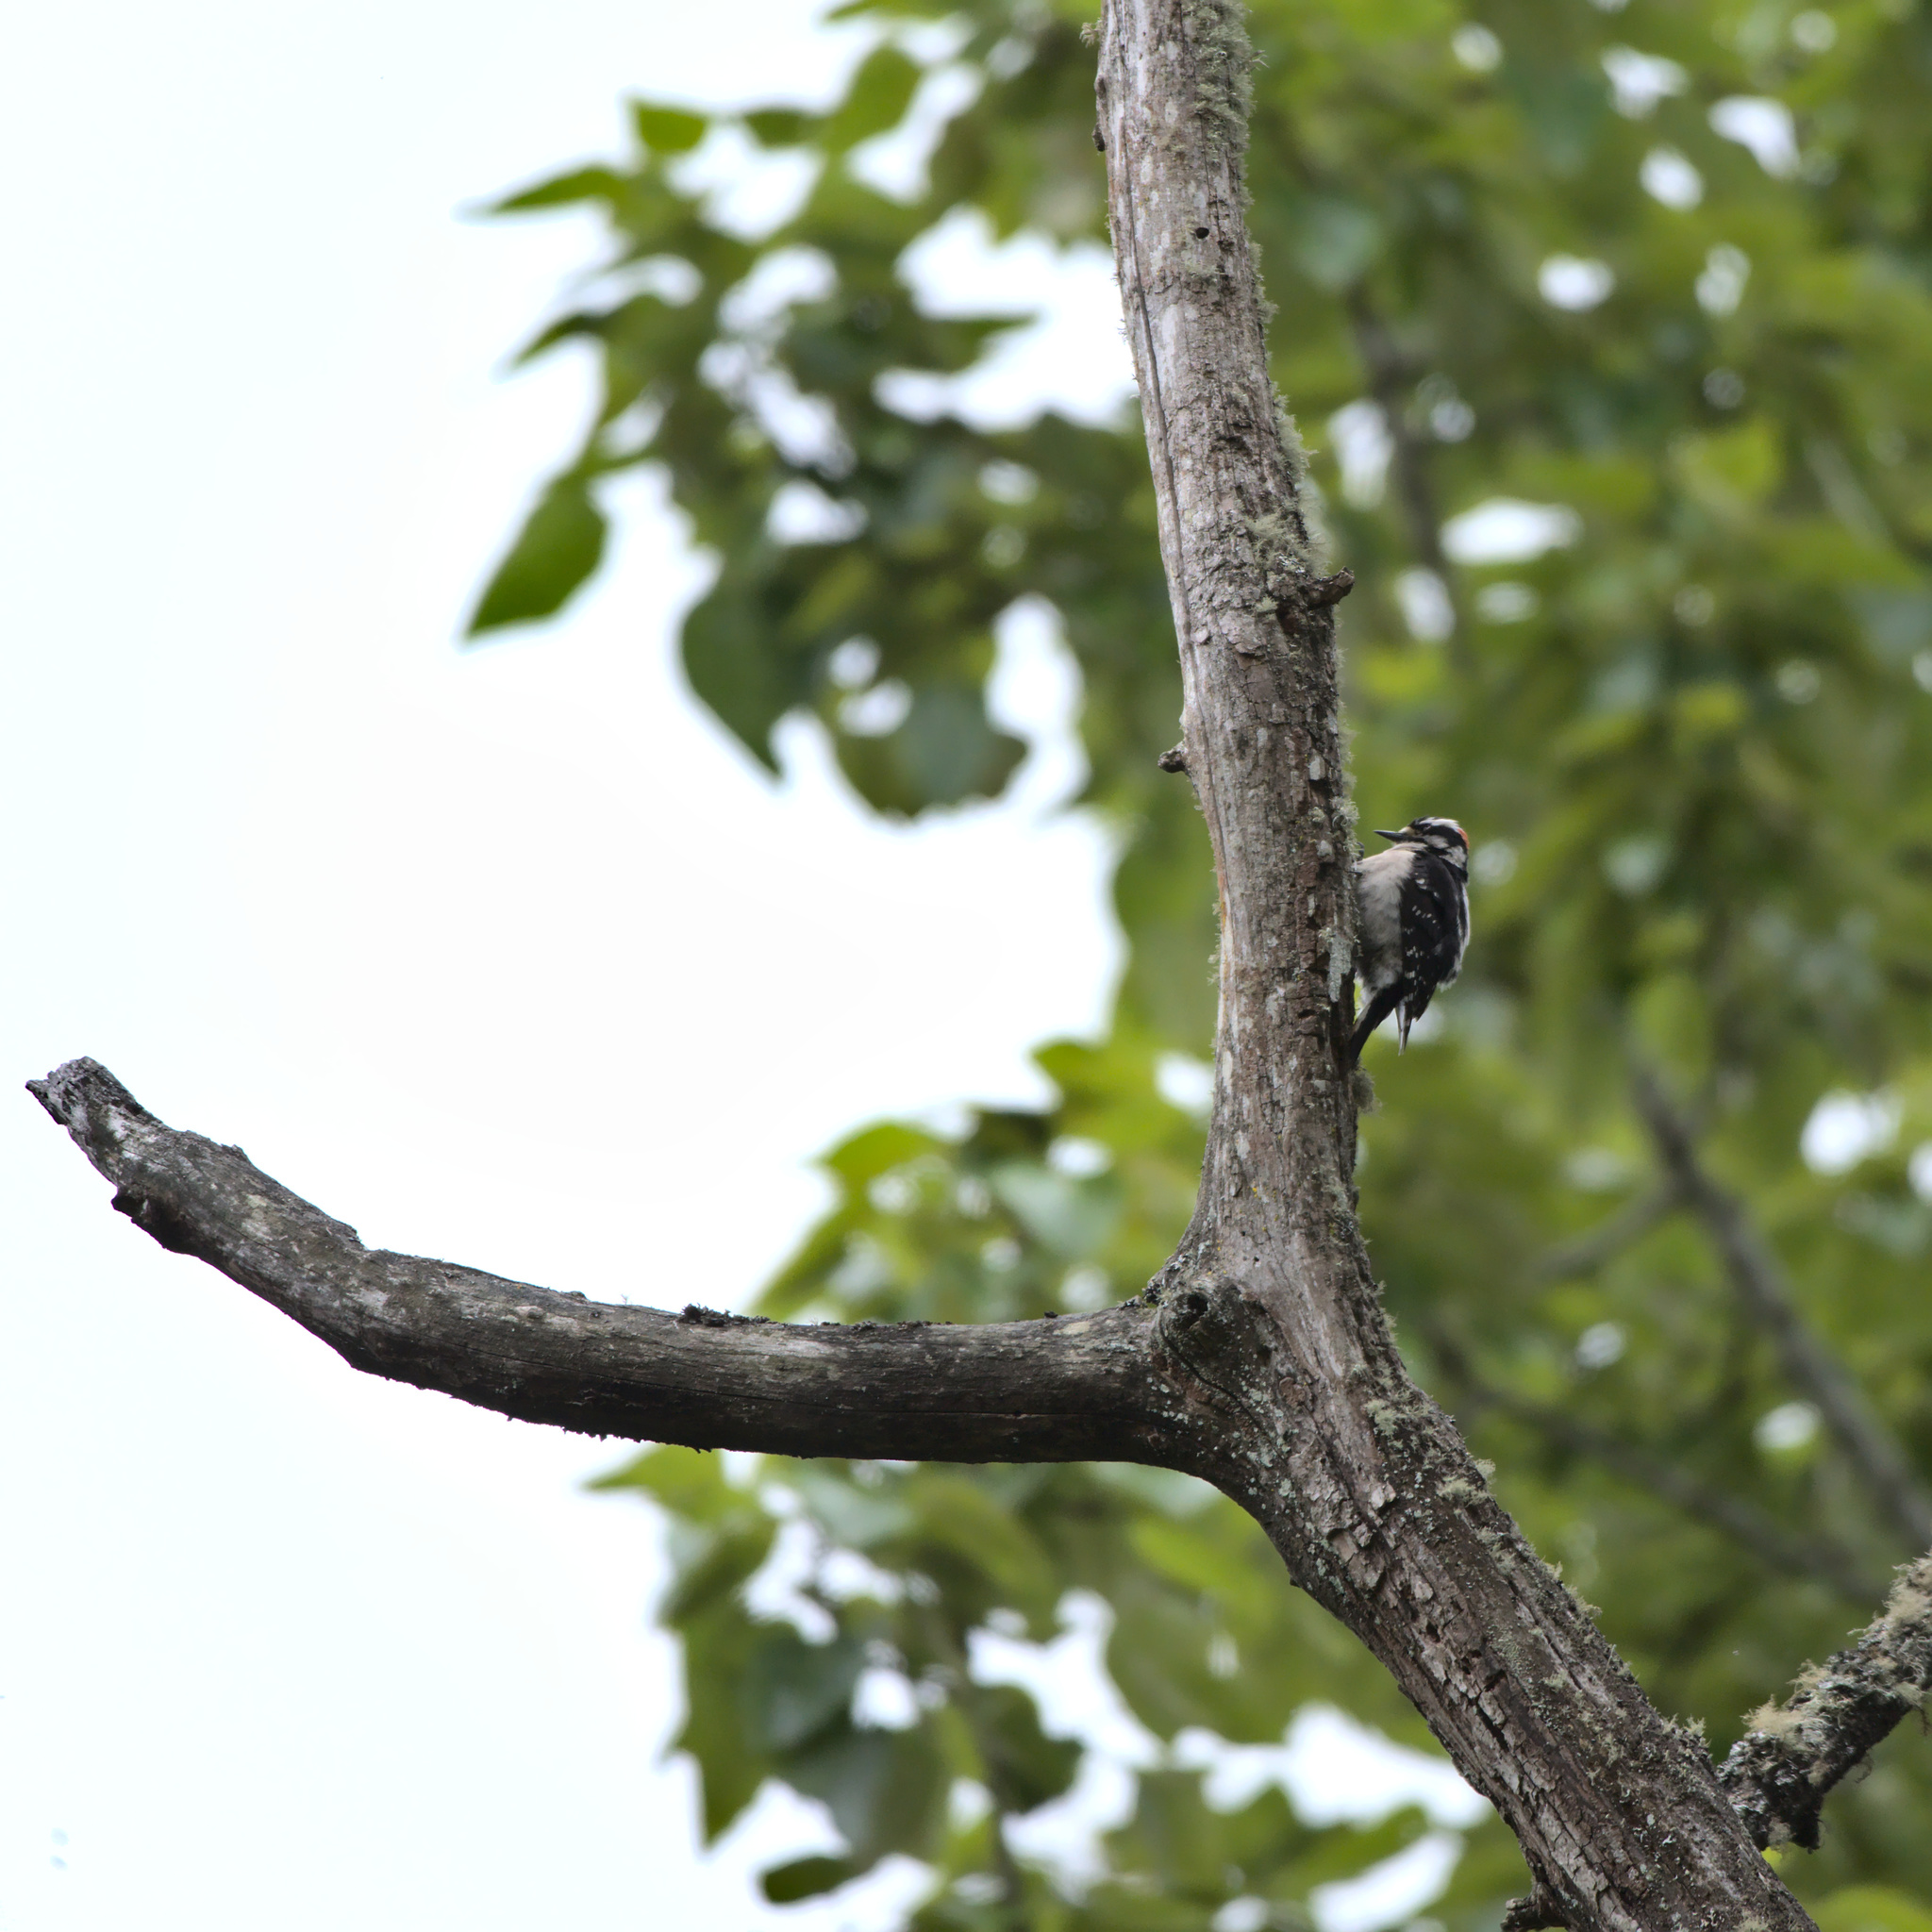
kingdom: Animalia
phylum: Chordata
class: Aves
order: Piciformes
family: Picidae
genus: Dryobates
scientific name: Dryobates pubescens
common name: Downy woodpecker
